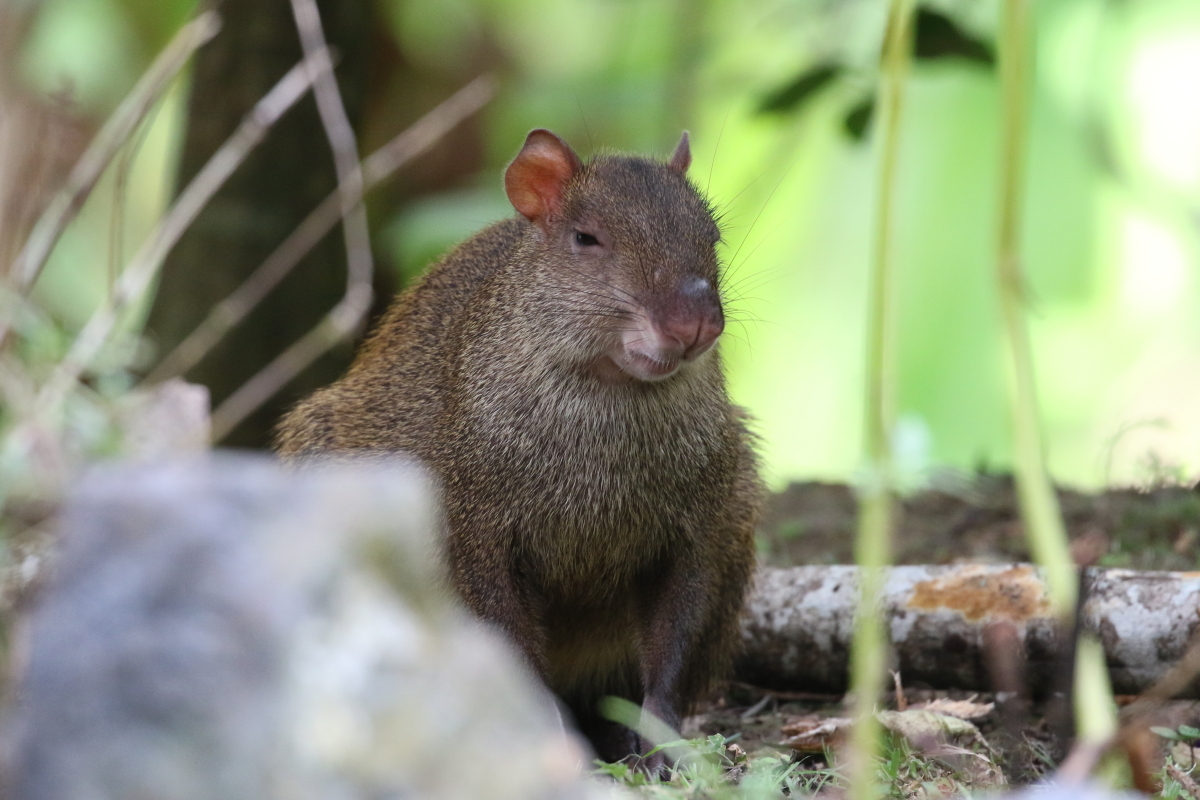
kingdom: Animalia
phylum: Chordata
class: Mammalia
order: Rodentia
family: Dasyproctidae
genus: Dasyprocta
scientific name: Dasyprocta punctata
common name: Central american agouti
